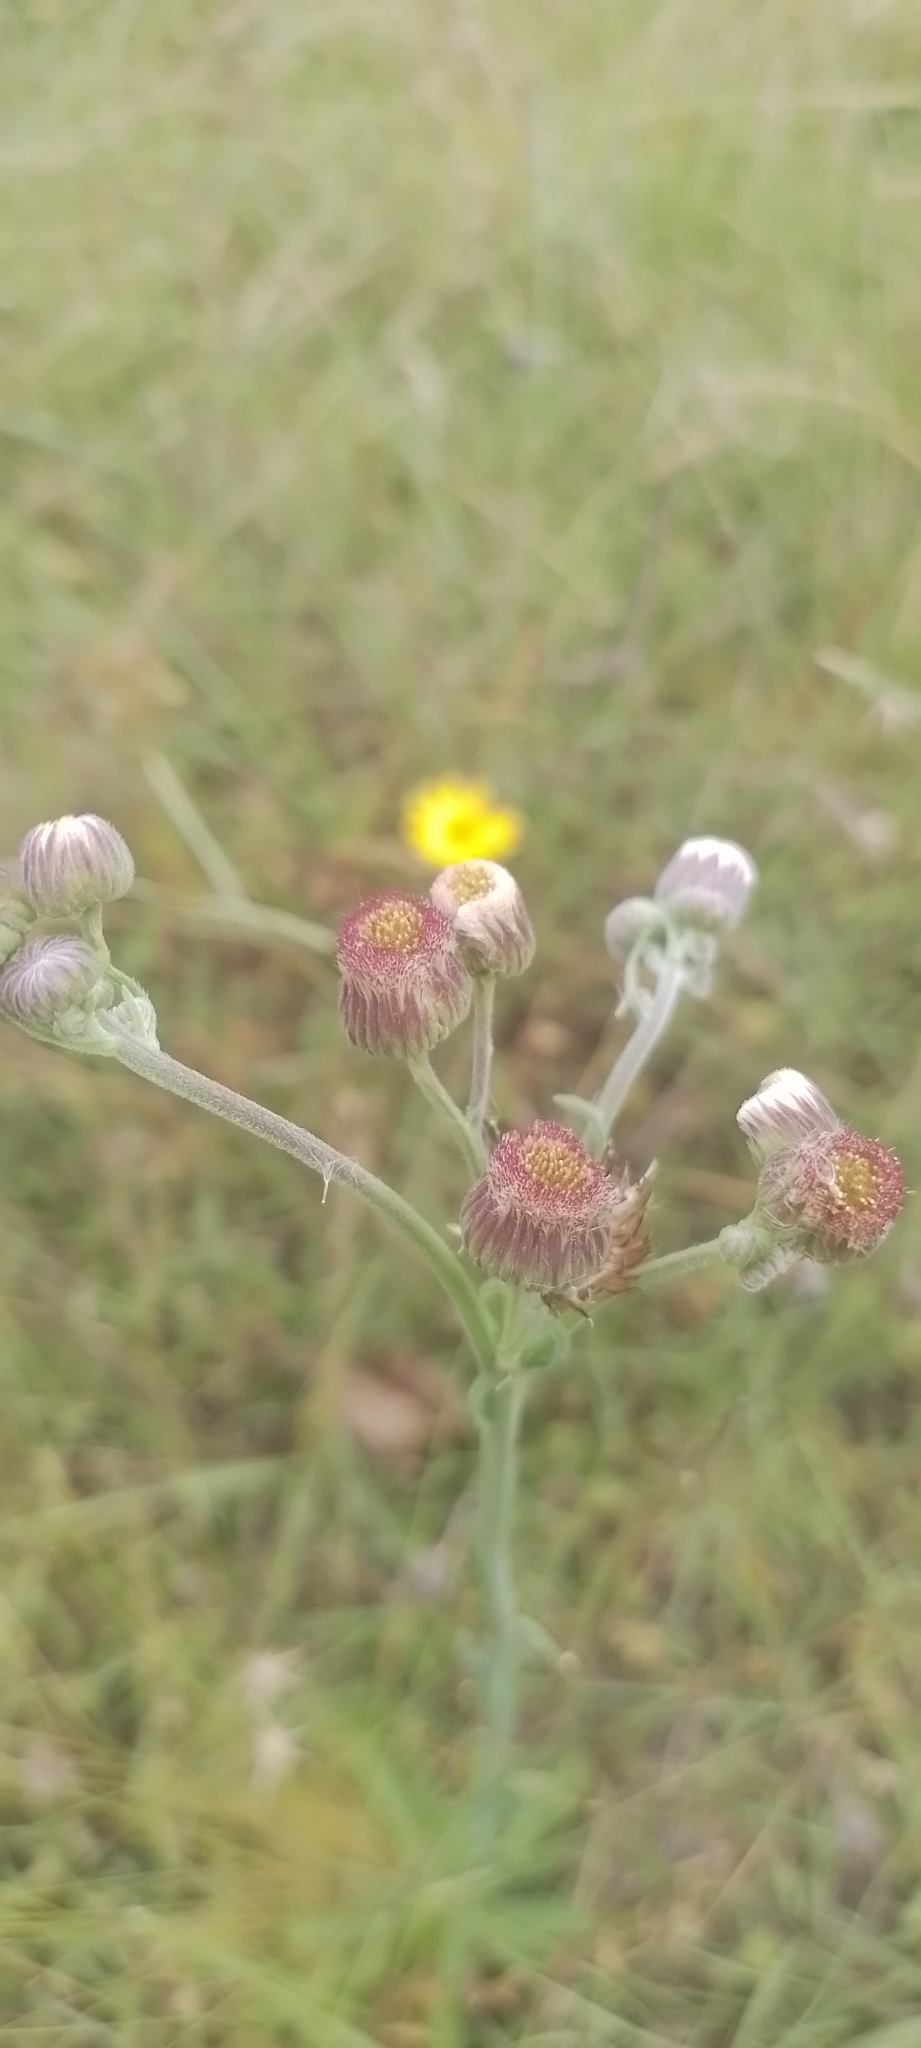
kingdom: Plantae
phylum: Tracheophyta
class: Magnoliopsida
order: Asterales
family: Asteraceae
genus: Erigeron
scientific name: Erigeron primulifolius
